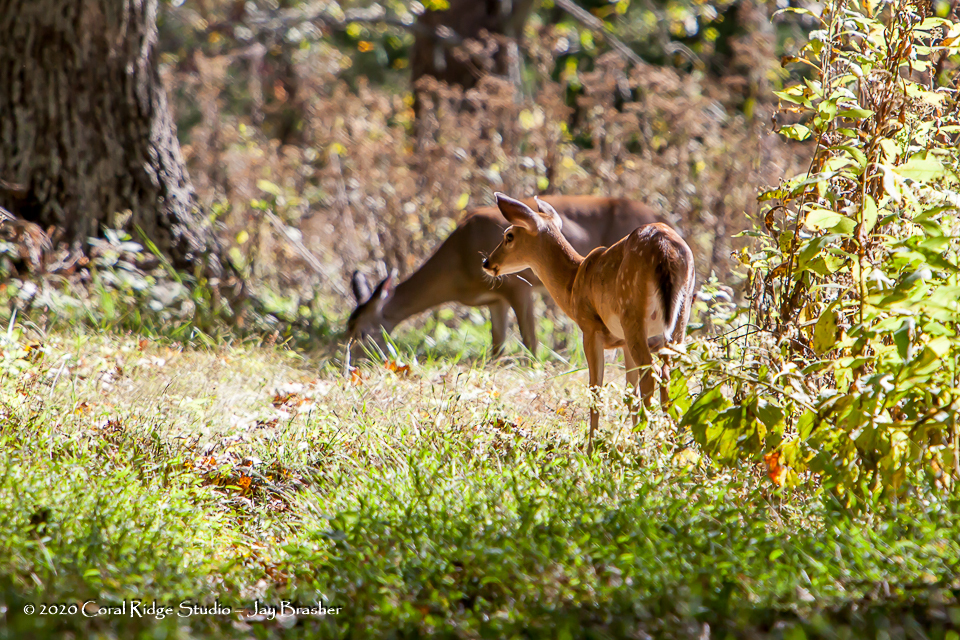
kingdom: Animalia
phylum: Chordata
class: Mammalia
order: Artiodactyla
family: Cervidae
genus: Odocoileus
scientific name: Odocoileus virginianus
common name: White-tailed deer
